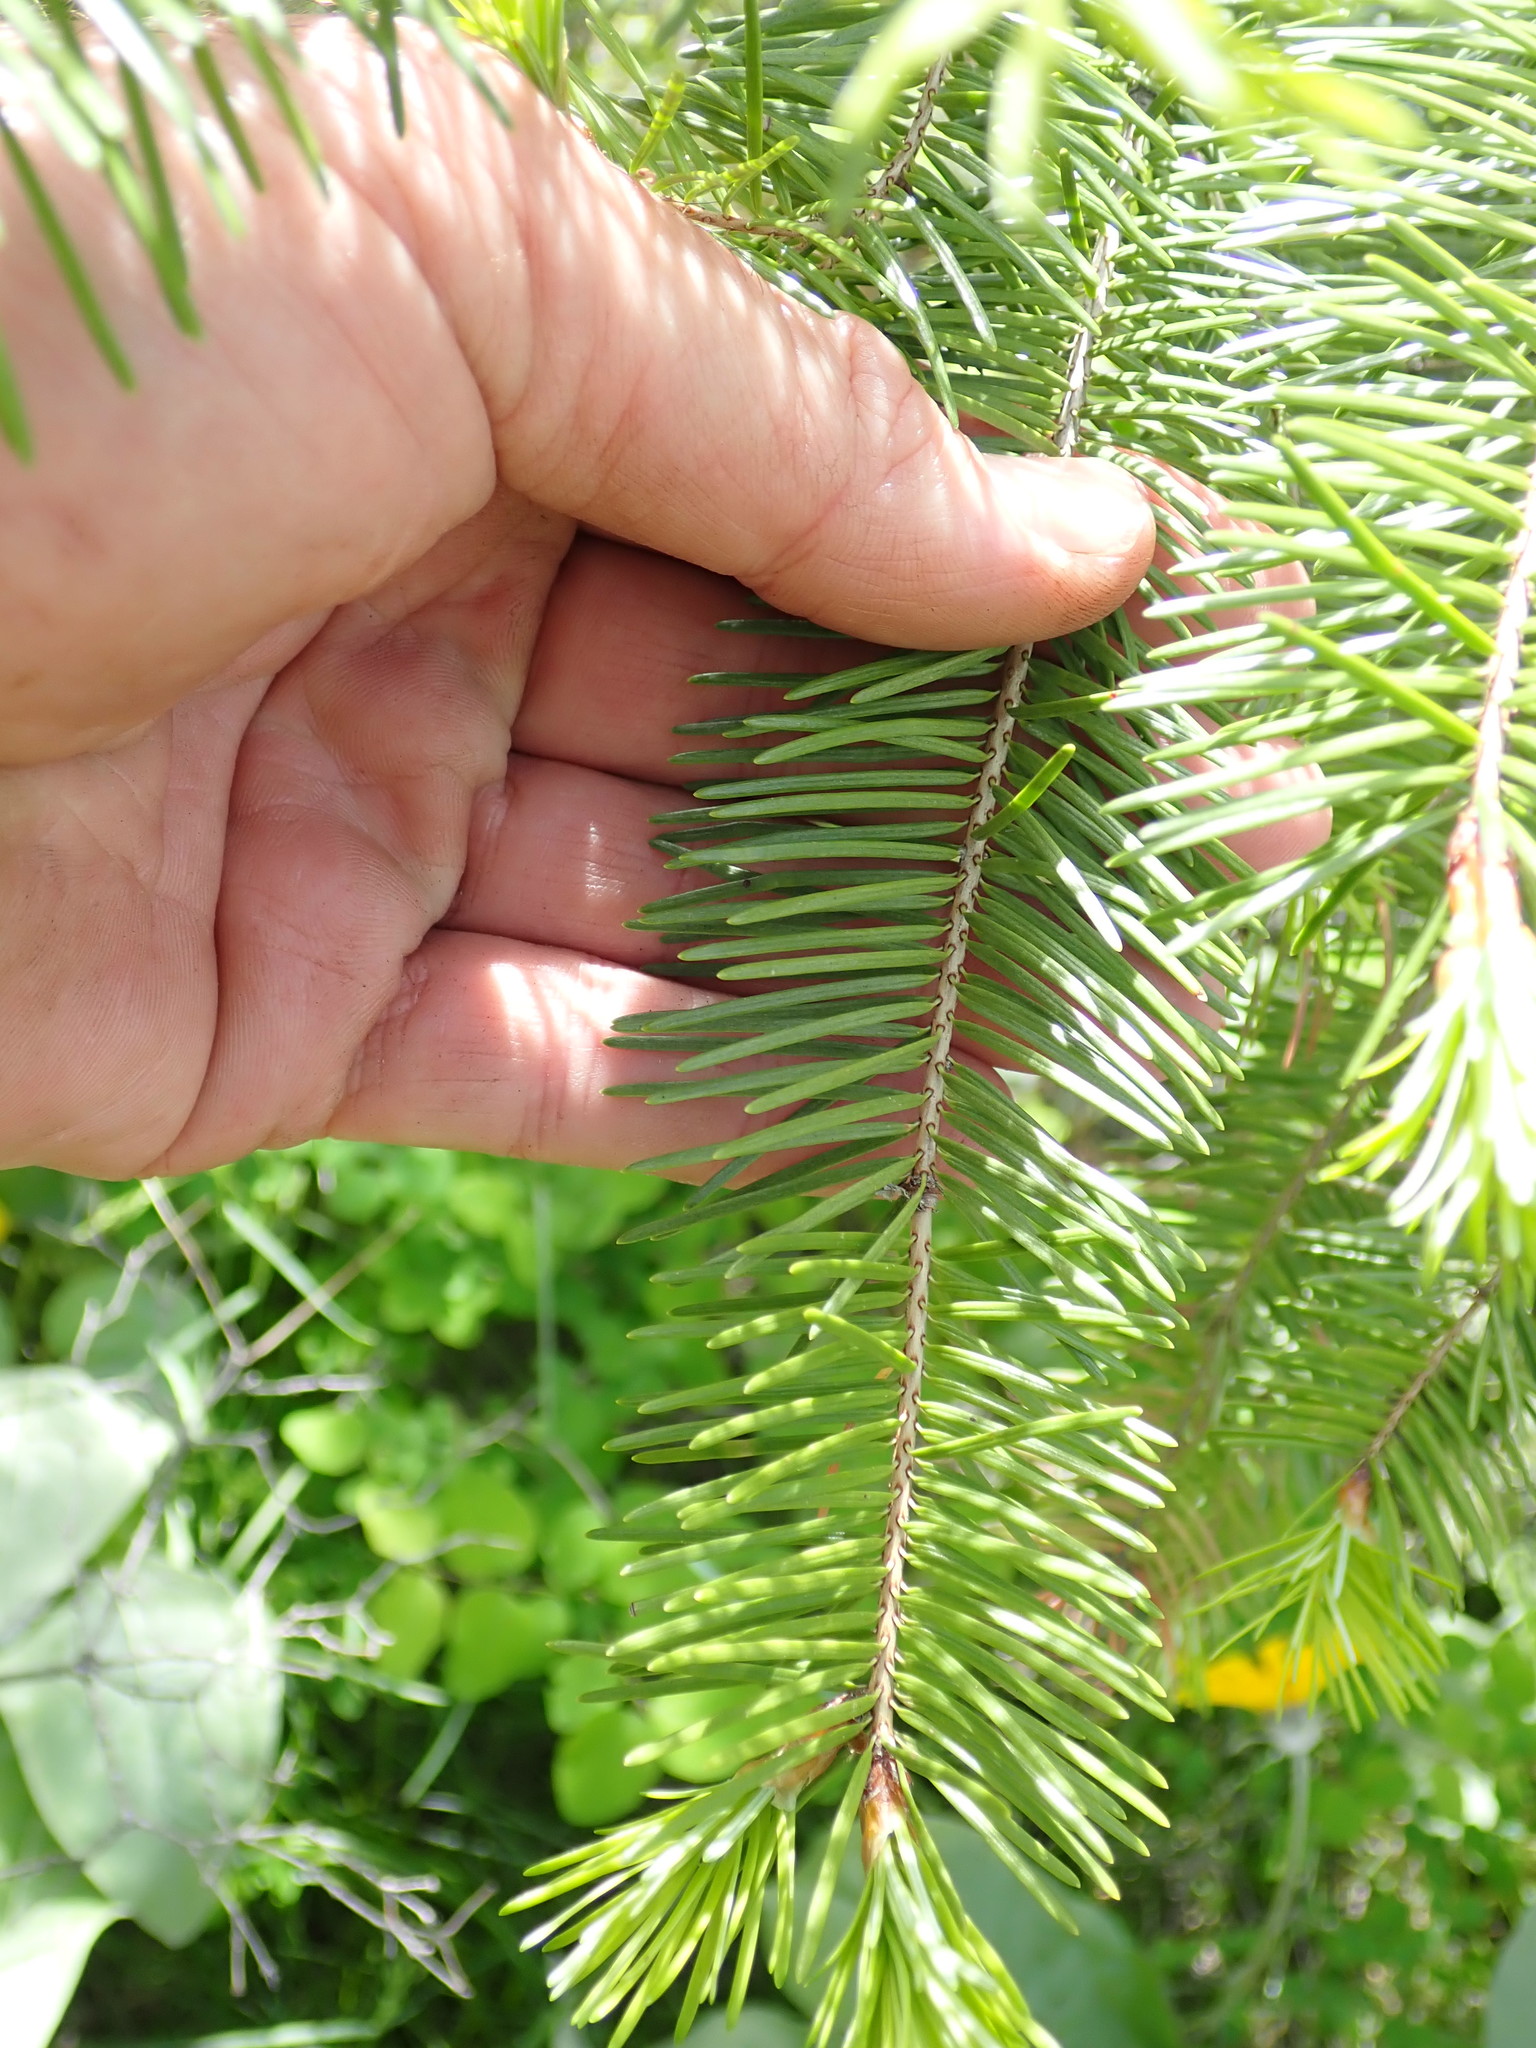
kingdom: Plantae
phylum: Tracheophyta
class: Pinopsida
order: Pinales
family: Pinaceae
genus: Pseudotsuga
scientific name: Pseudotsuga menziesii
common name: Douglas fir
